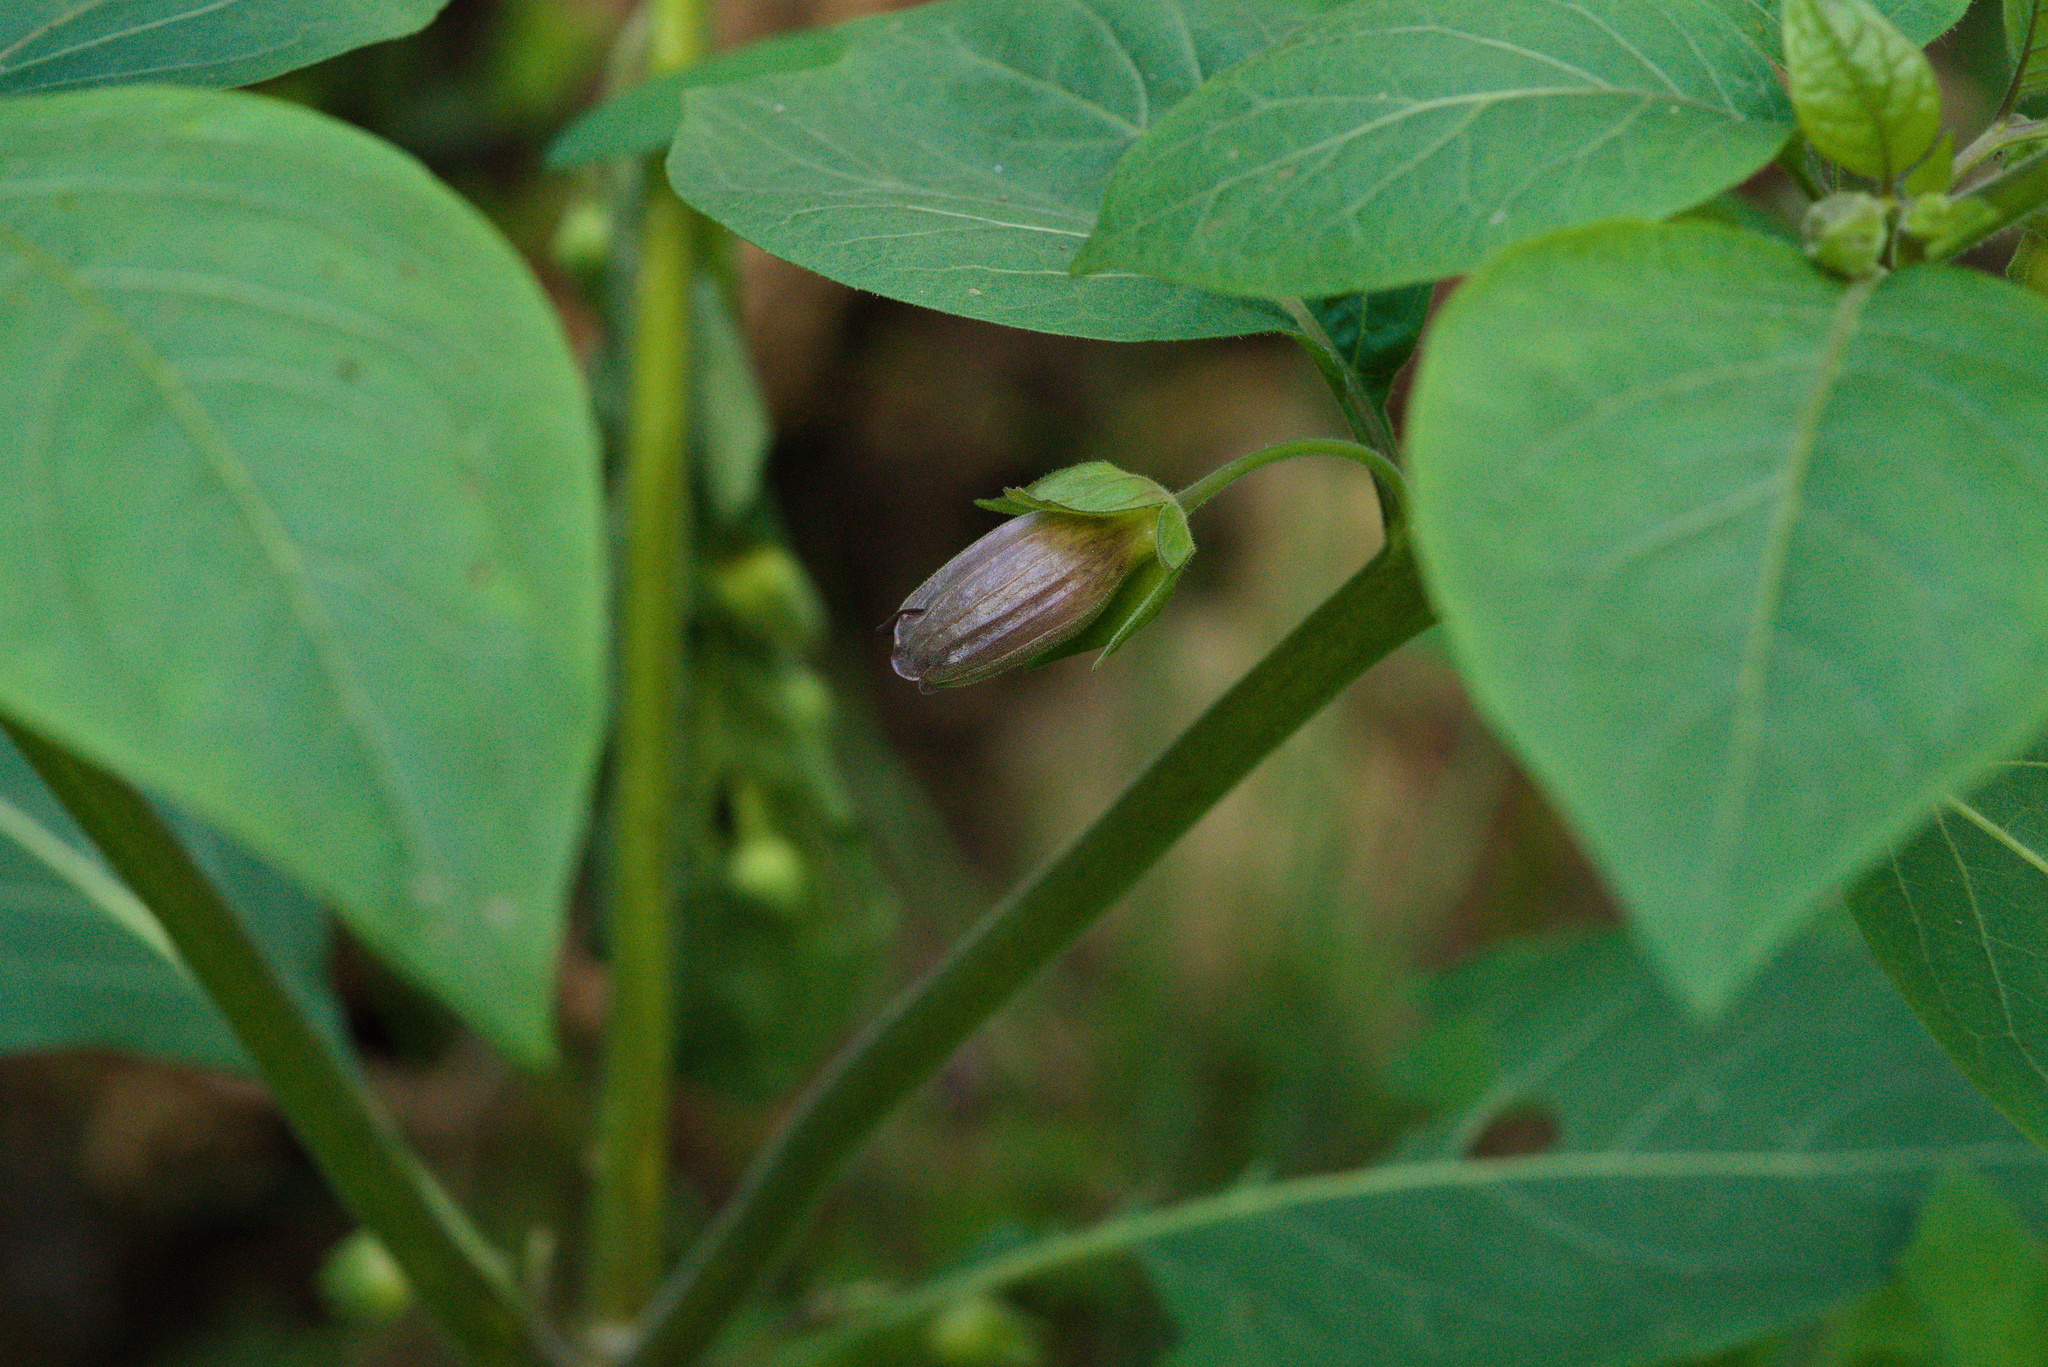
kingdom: Plantae
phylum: Tracheophyta
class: Magnoliopsida
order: Solanales
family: Solanaceae
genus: Atropa
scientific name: Atropa belladonna
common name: Deadly nightshade
